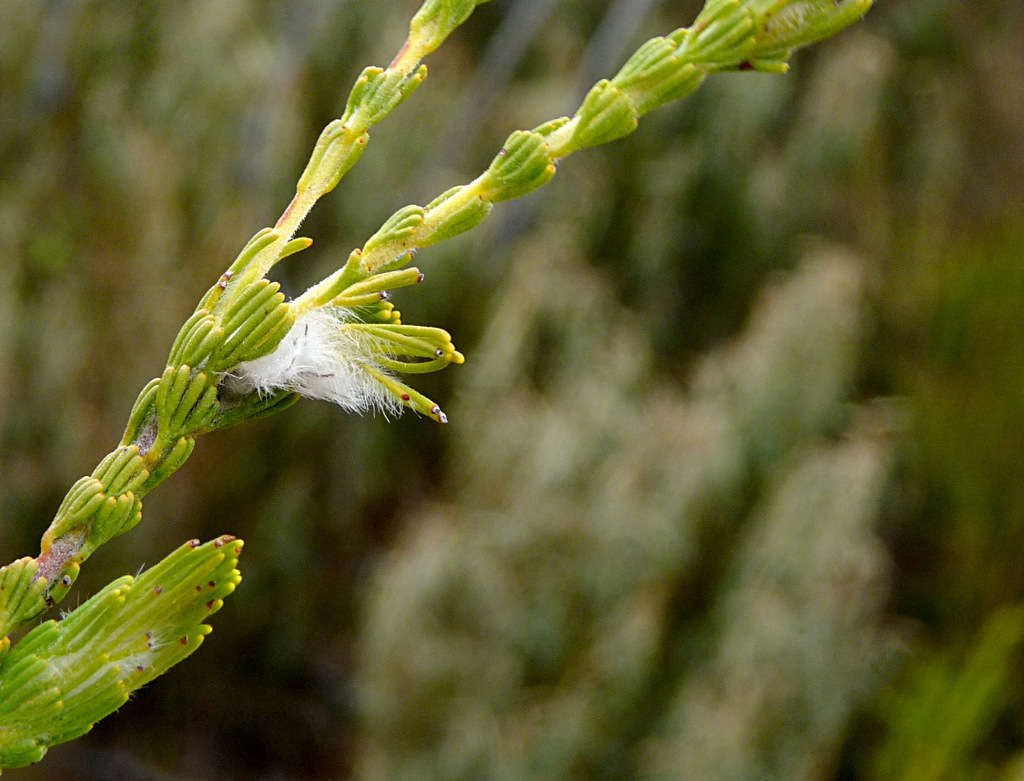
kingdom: Plantae
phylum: Tracheophyta
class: Magnoliopsida
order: Proteales
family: Proteaceae
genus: Adenanthos
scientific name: Adenanthos terminalis
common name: Yellow gland-flower
